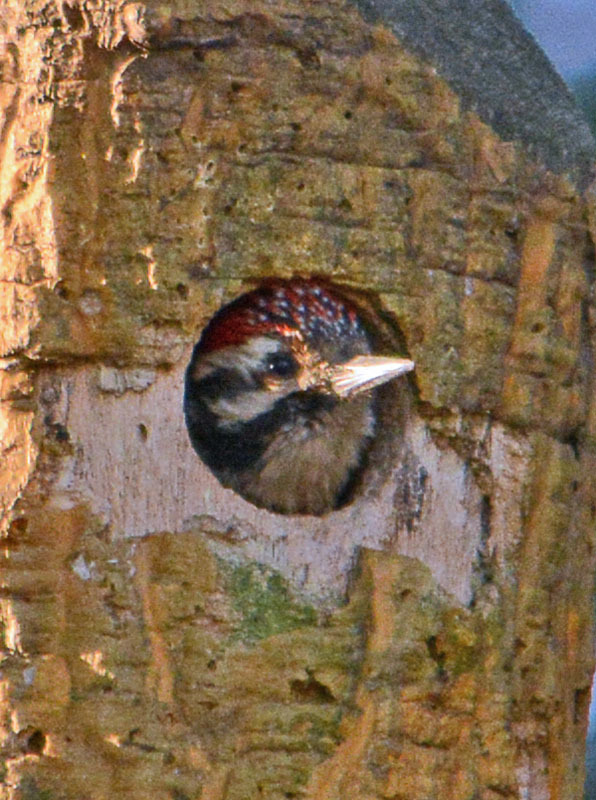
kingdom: Animalia
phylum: Chordata
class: Aves
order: Piciformes
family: Picidae
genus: Dryobates
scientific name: Dryobates scalaris
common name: Ladder-backed woodpecker
